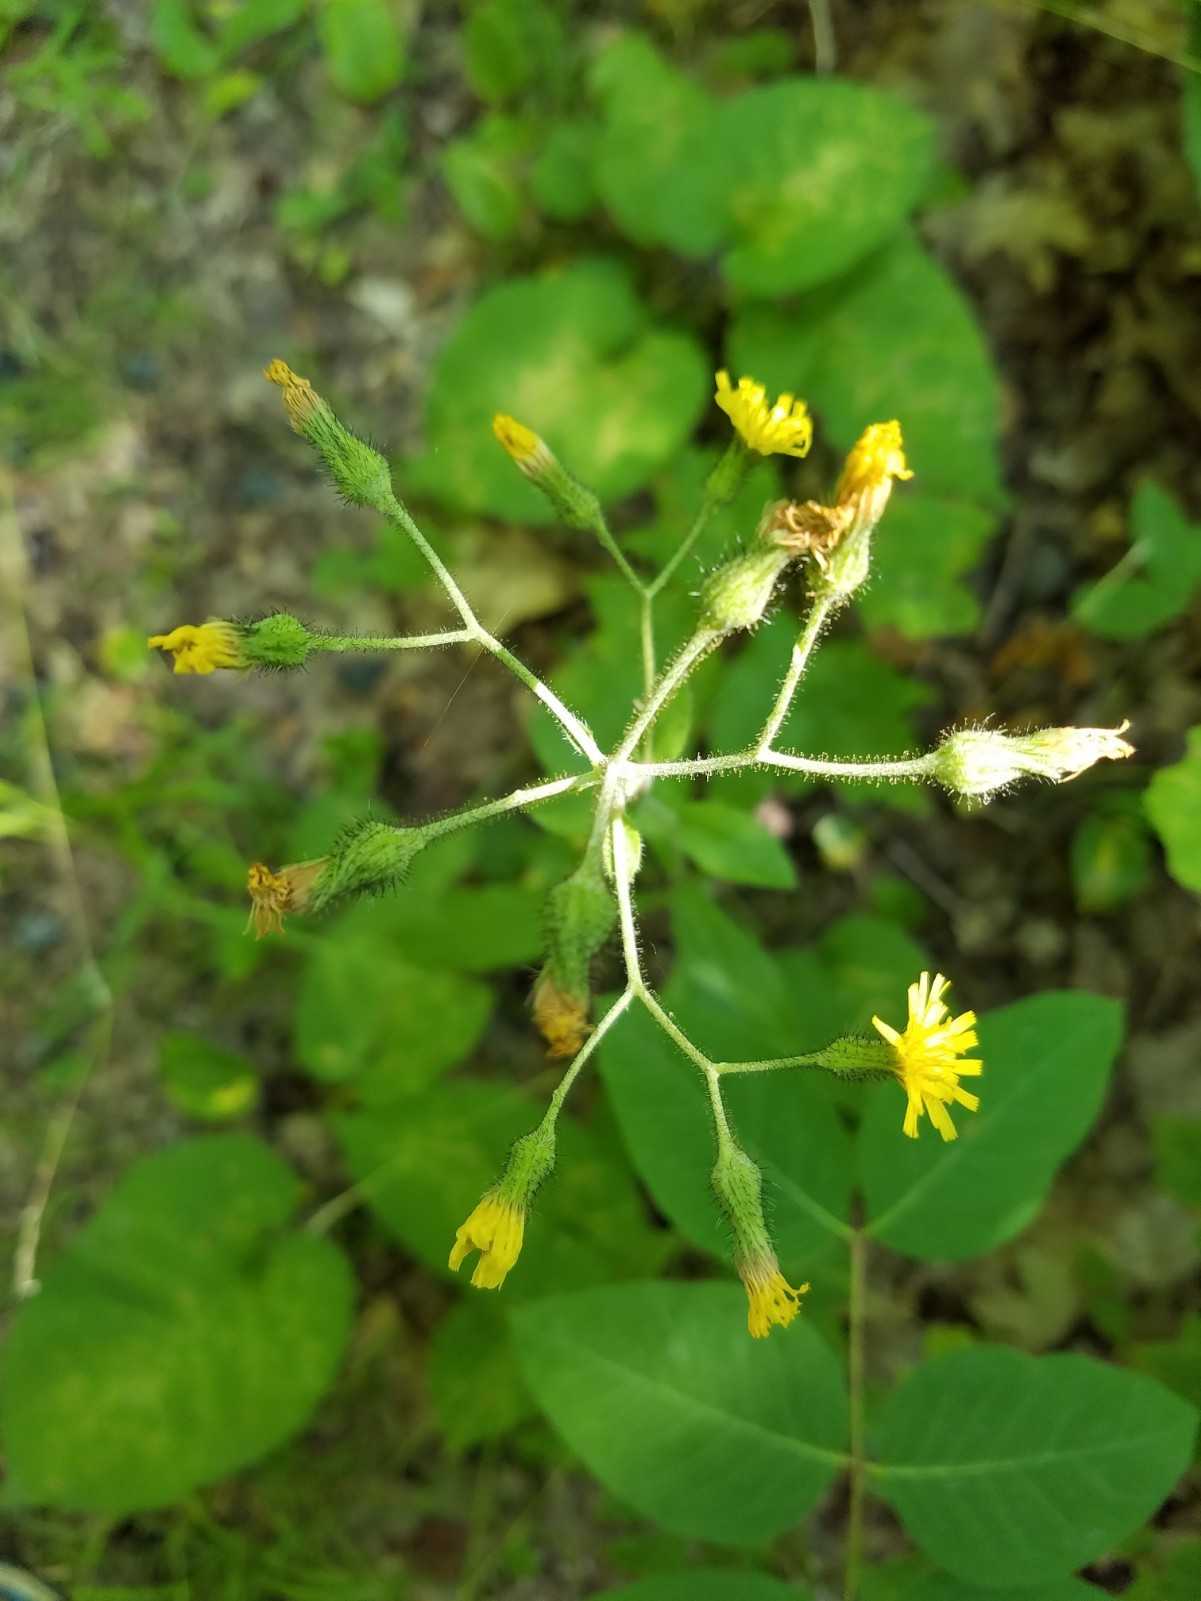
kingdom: Plantae
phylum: Tracheophyta
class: Magnoliopsida
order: Asterales
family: Asteraceae
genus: Hieracium
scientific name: Hieracium scabrum
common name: Rough hawkweed
